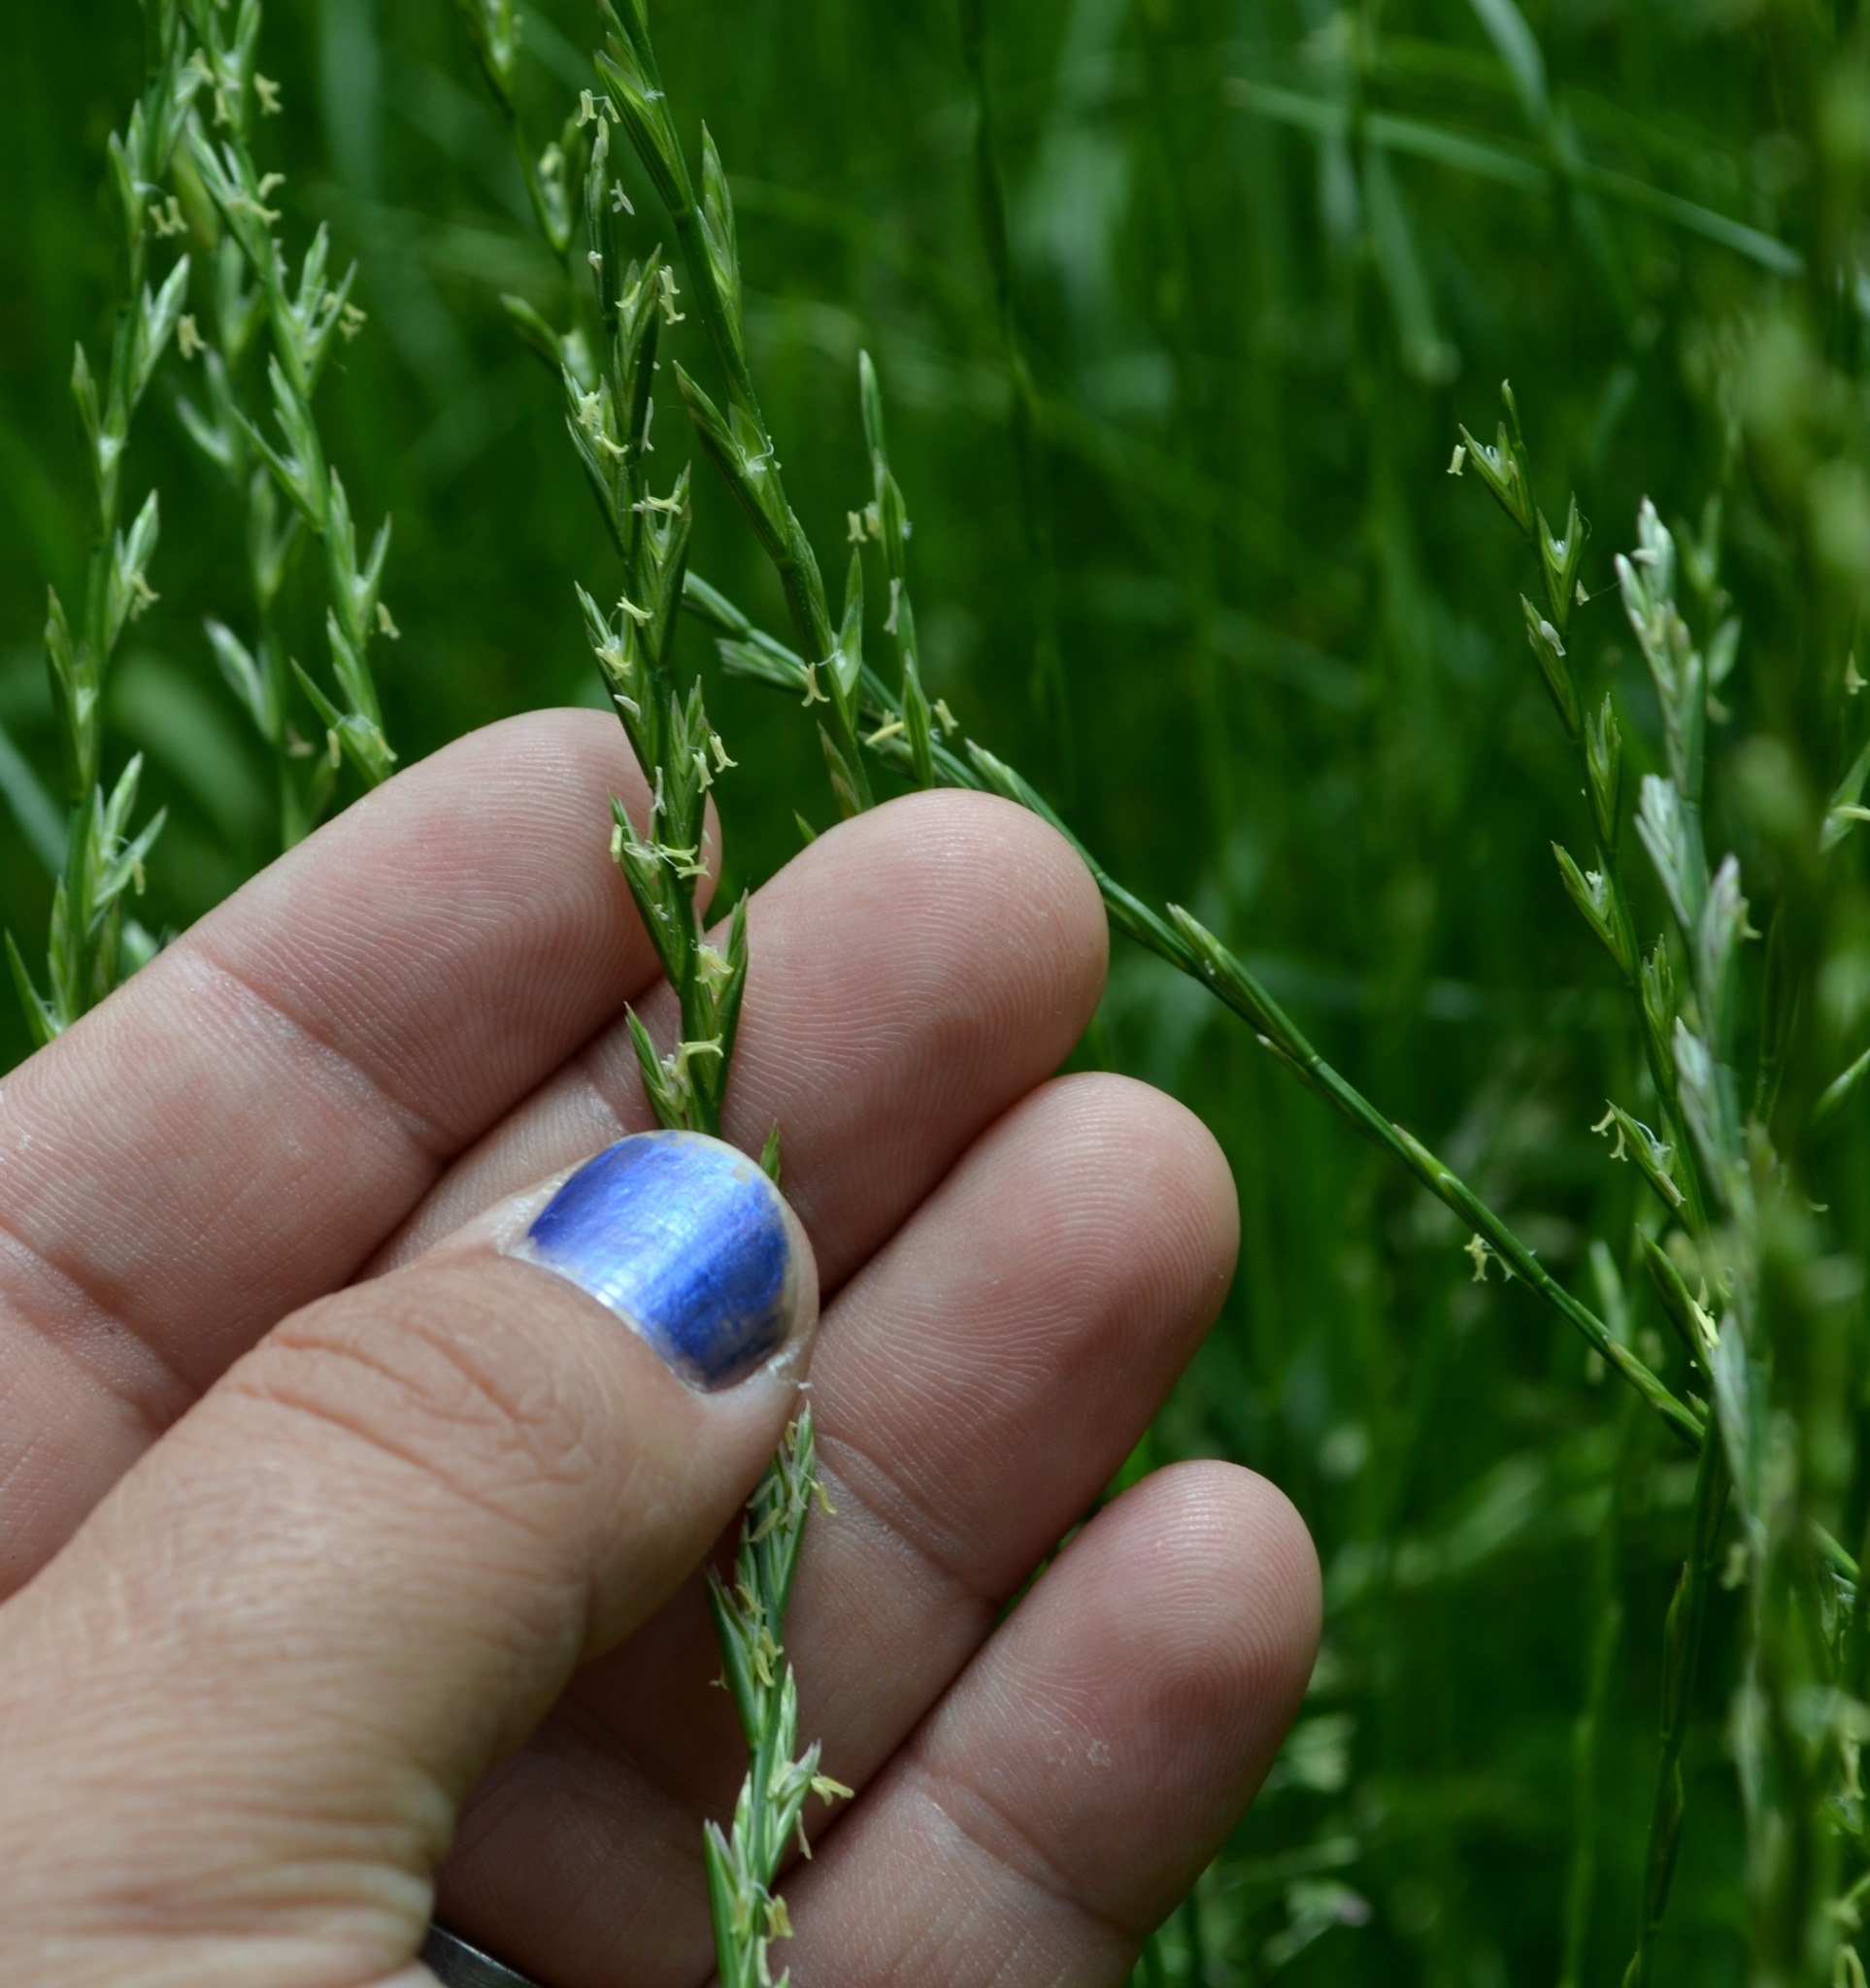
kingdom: Plantae
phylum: Tracheophyta
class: Liliopsida
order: Poales
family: Poaceae
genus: Lolium
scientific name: Lolium multiflorum
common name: Annual ryegrass
